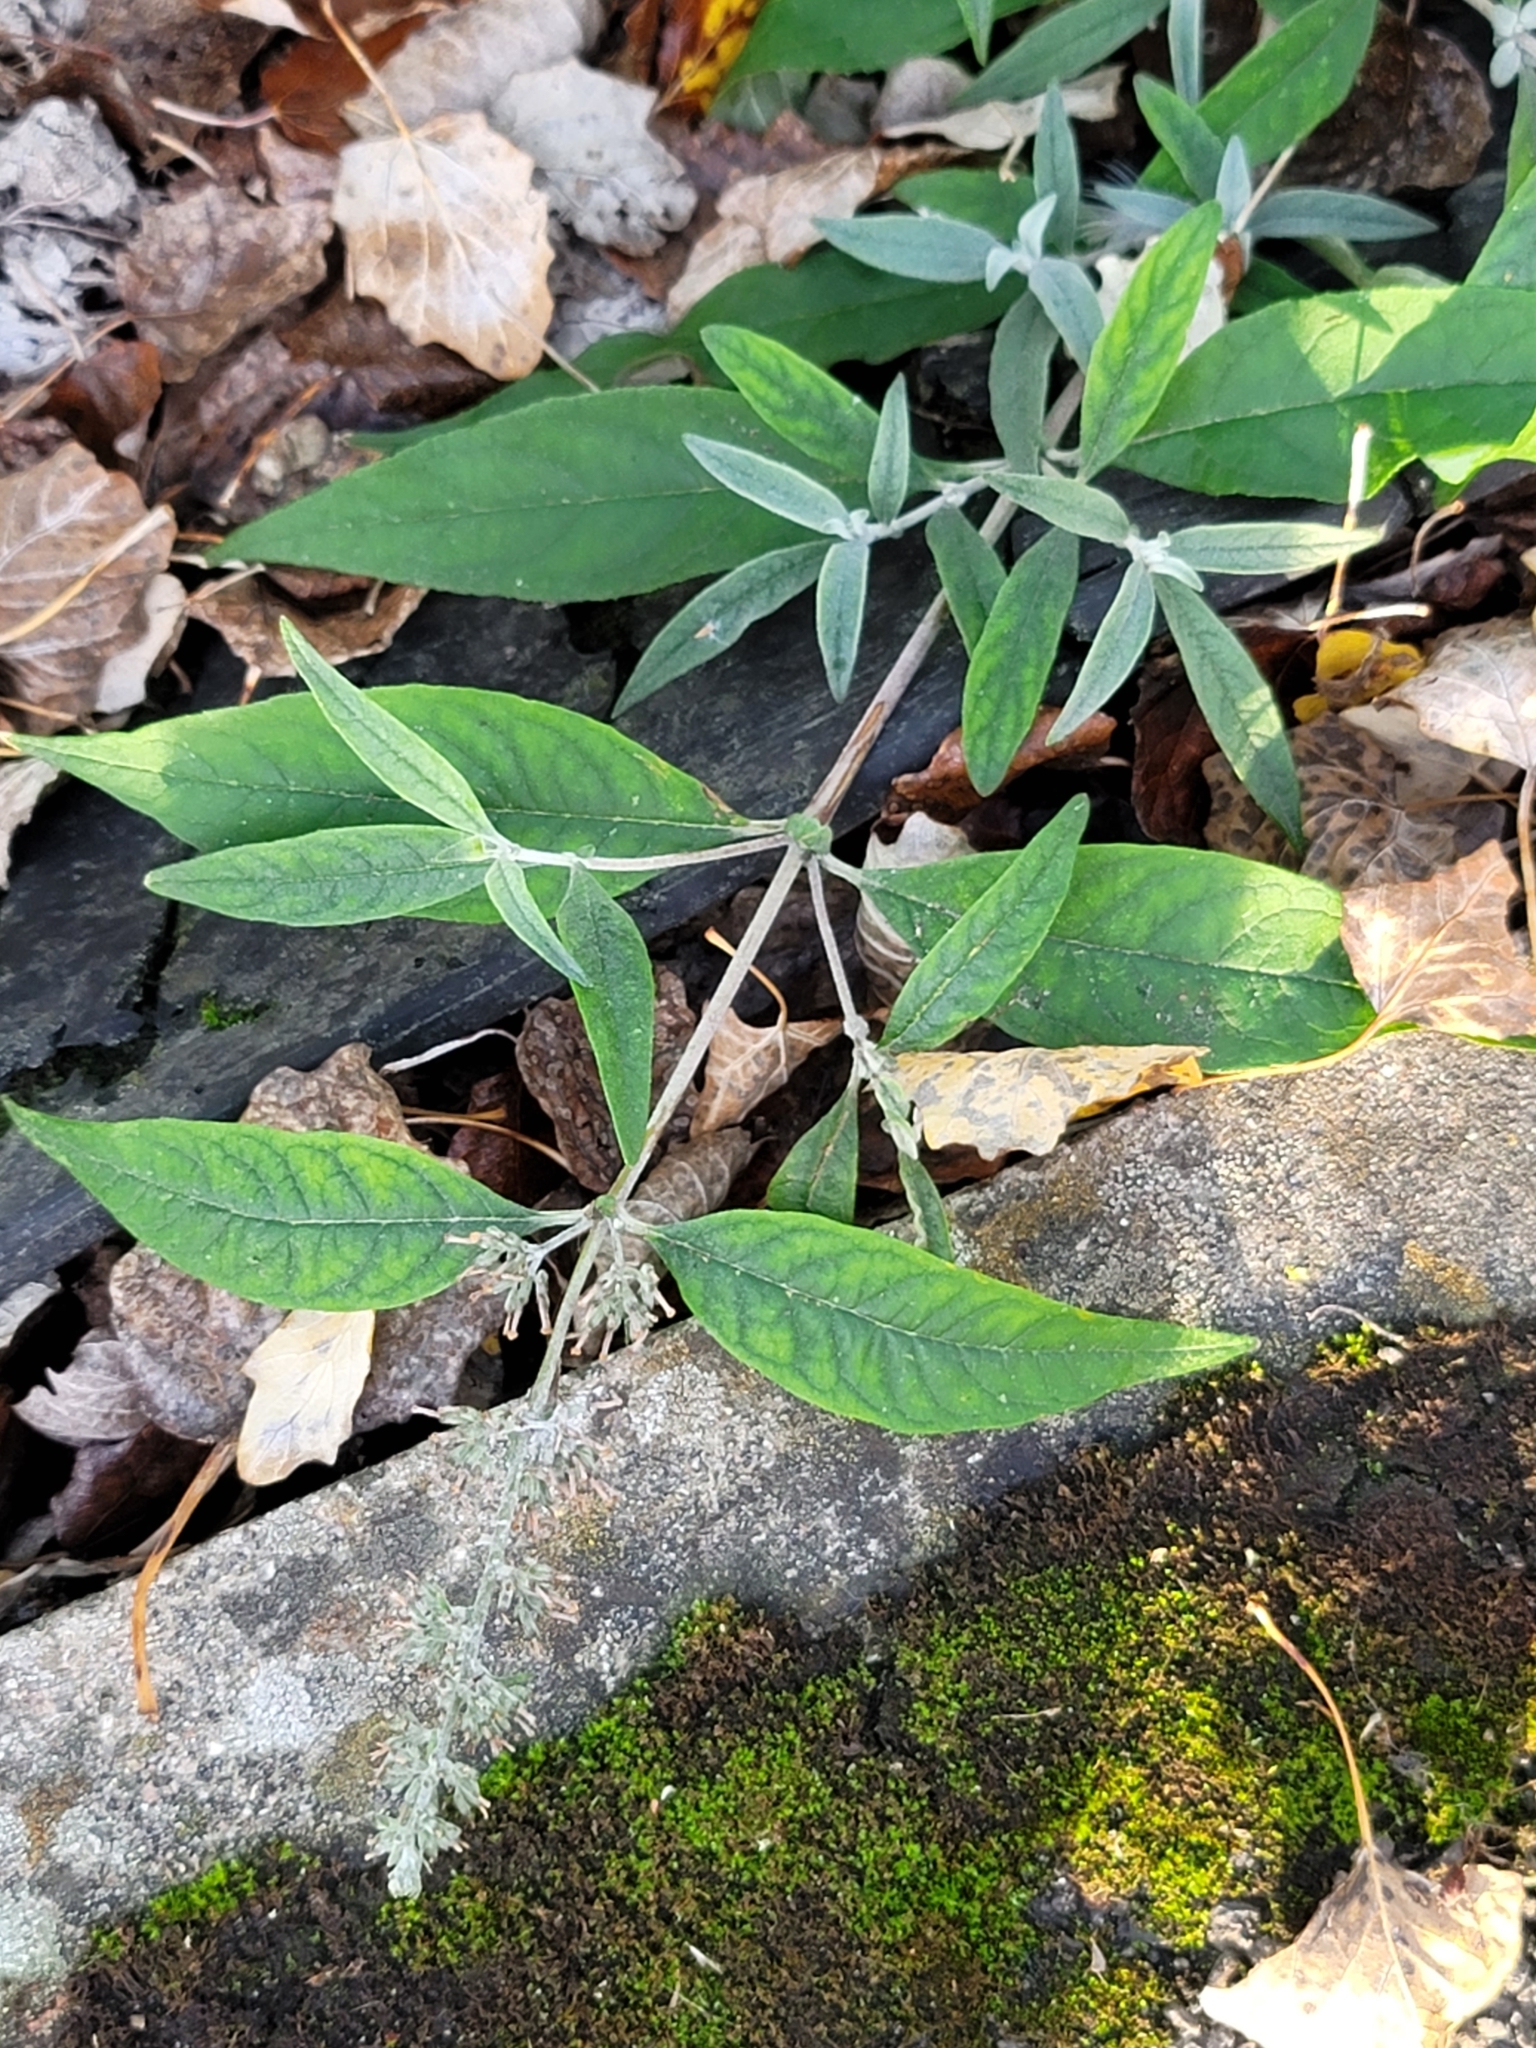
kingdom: Plantae
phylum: Tracheophyta
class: Magnoliopsida
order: Lamiales
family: Scrophulariaceae
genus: Buddleja
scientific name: Buddleja davidii
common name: Butterfly-bush
